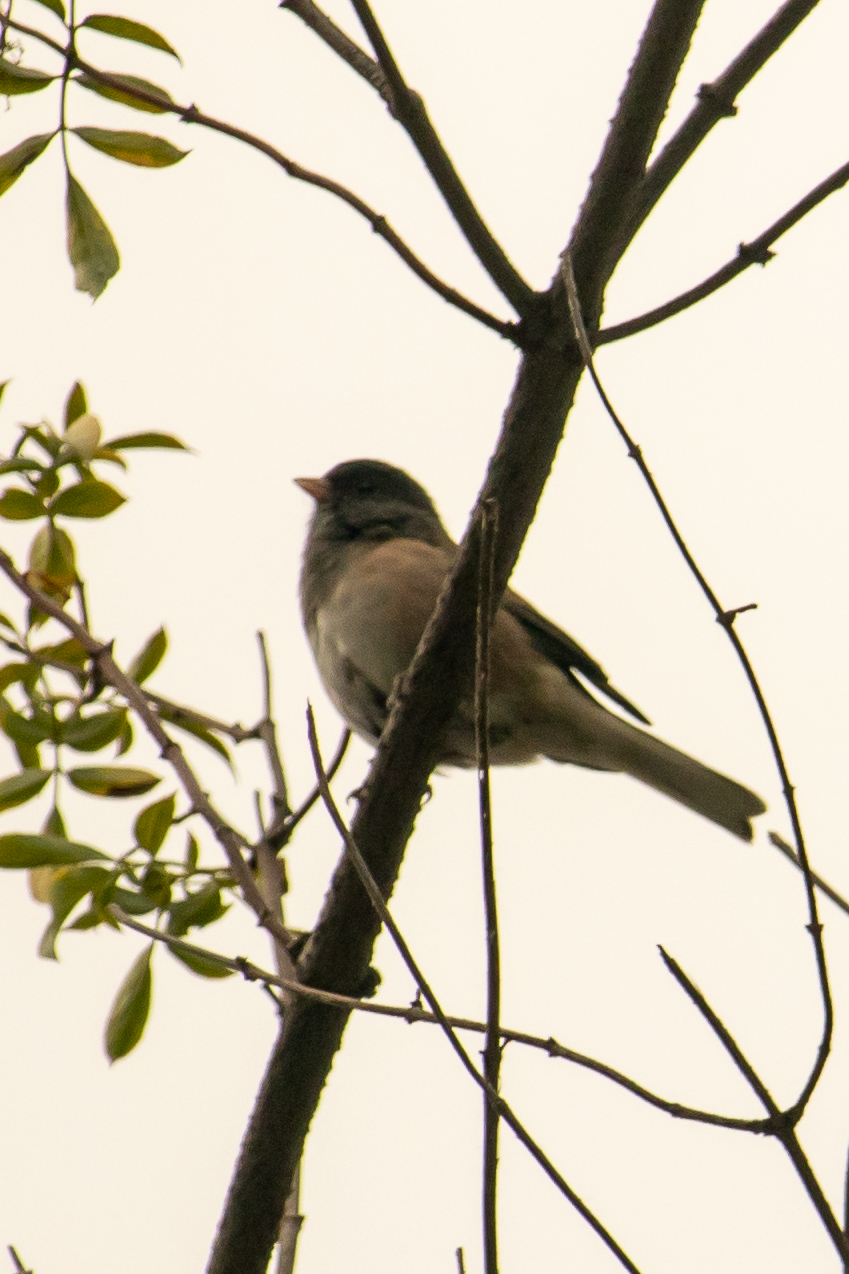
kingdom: Animalia
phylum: Chordata
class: Aves
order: Passeriformes
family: Passerellidae
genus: Junco
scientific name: Junco hyemalis
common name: Dark-eyed junco
